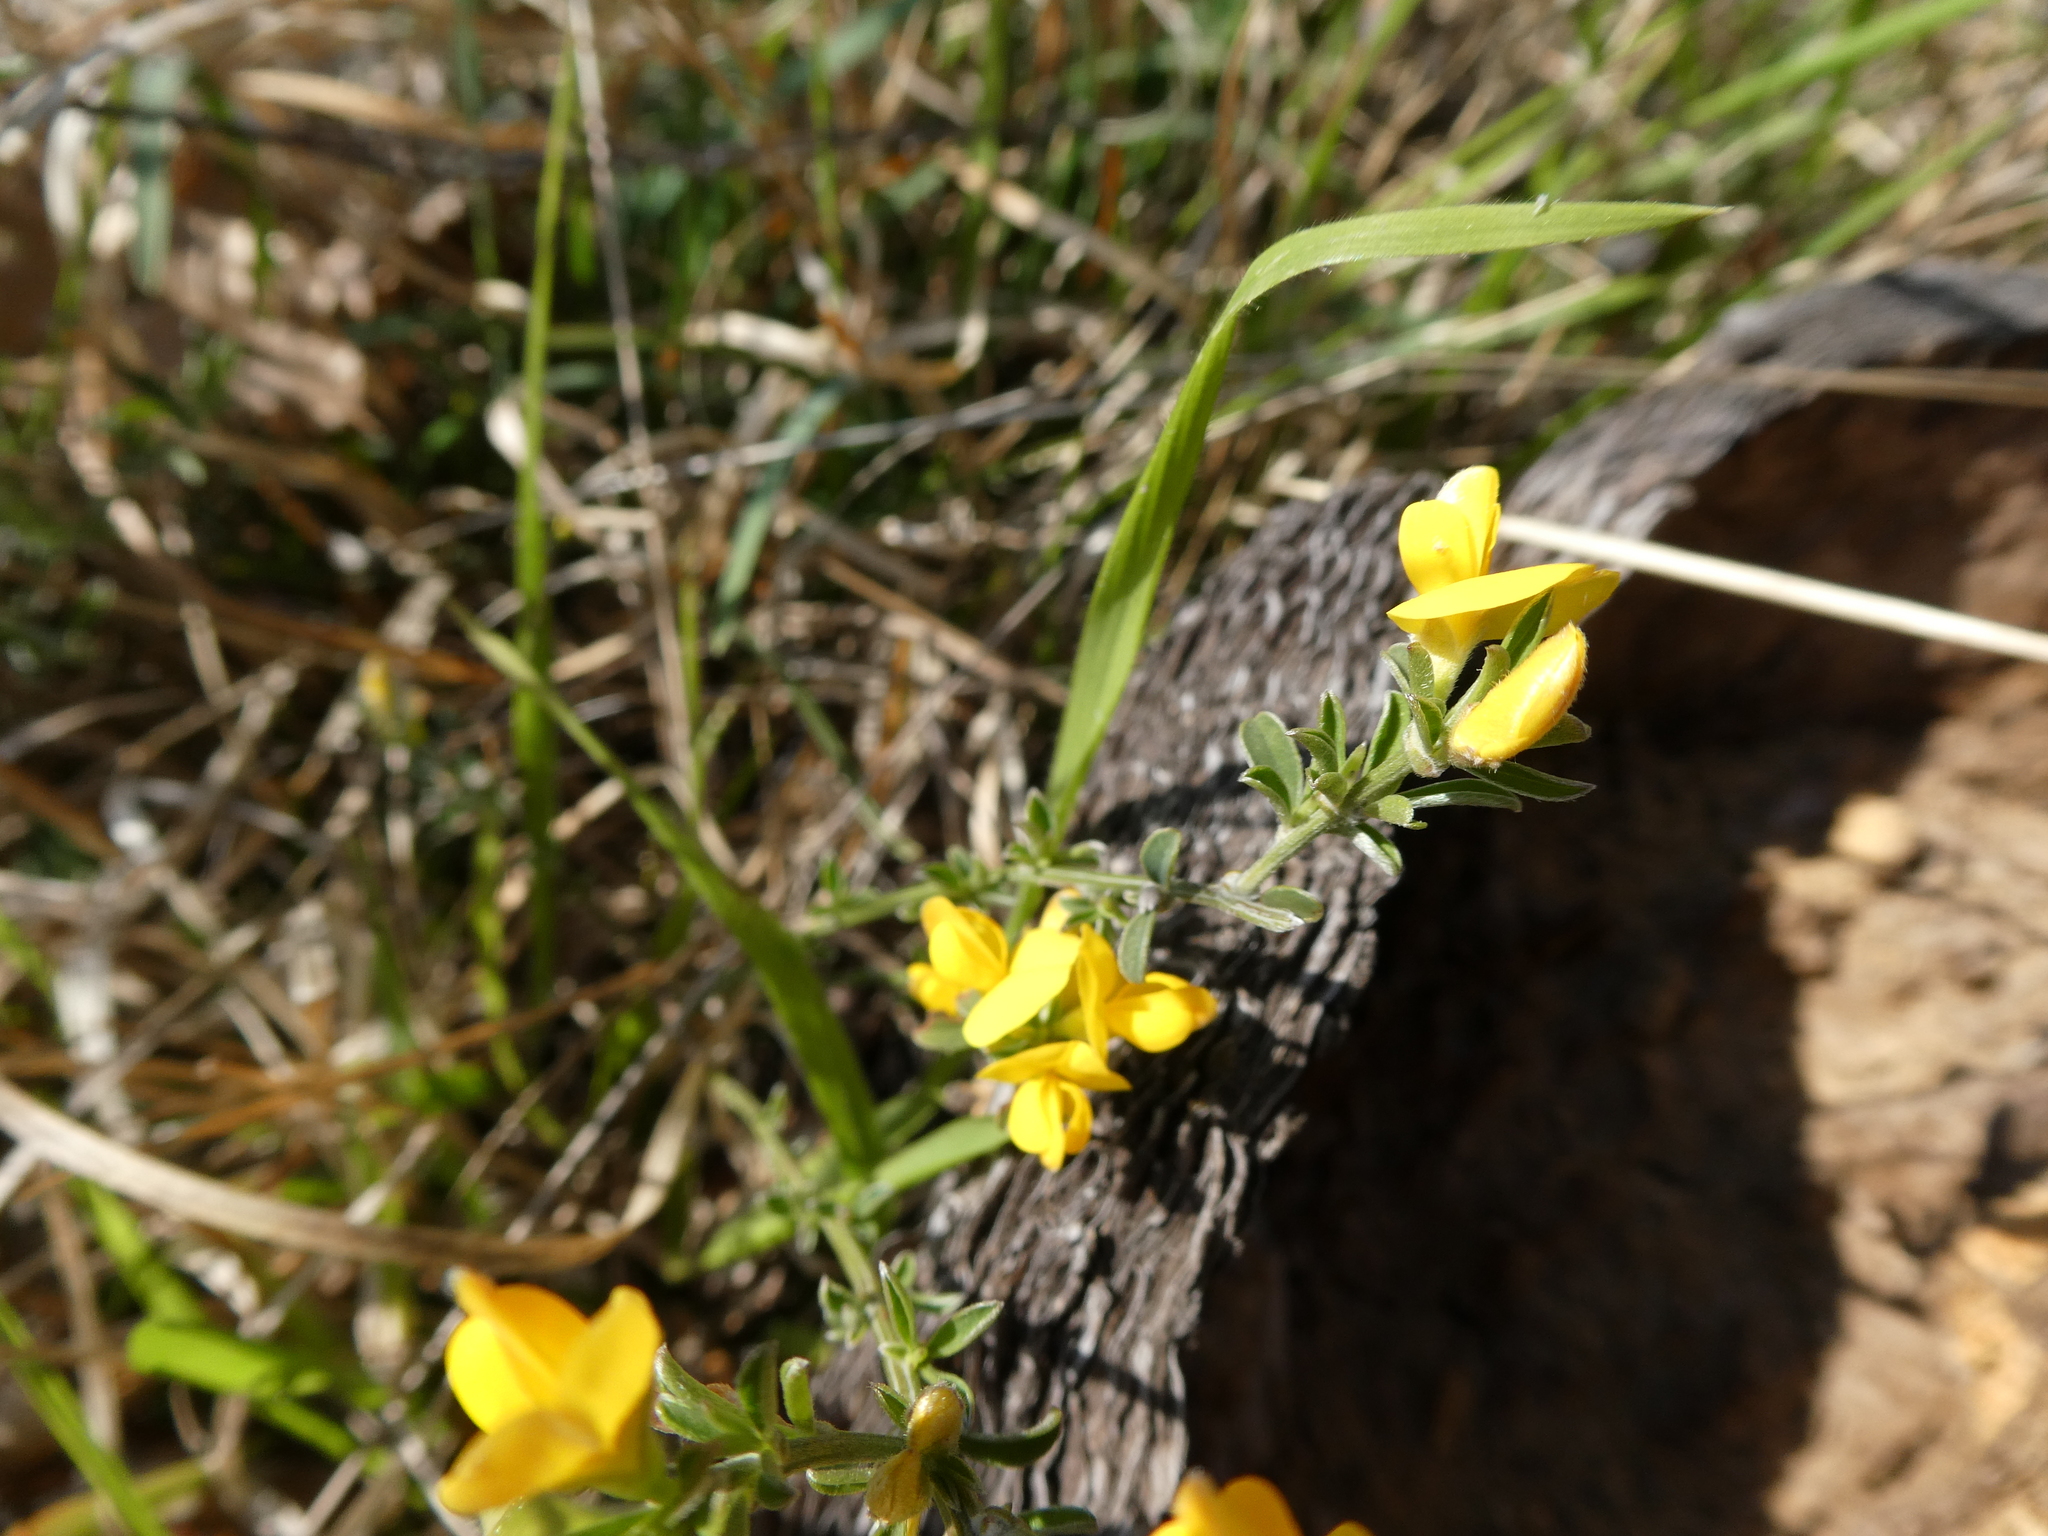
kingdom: Plantae
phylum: Tracheophyta
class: Magnoliopsida
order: Fabales
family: Fabaceae
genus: Lotus
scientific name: Lotus corniculatus
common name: Common bird's-foot-trefoil
